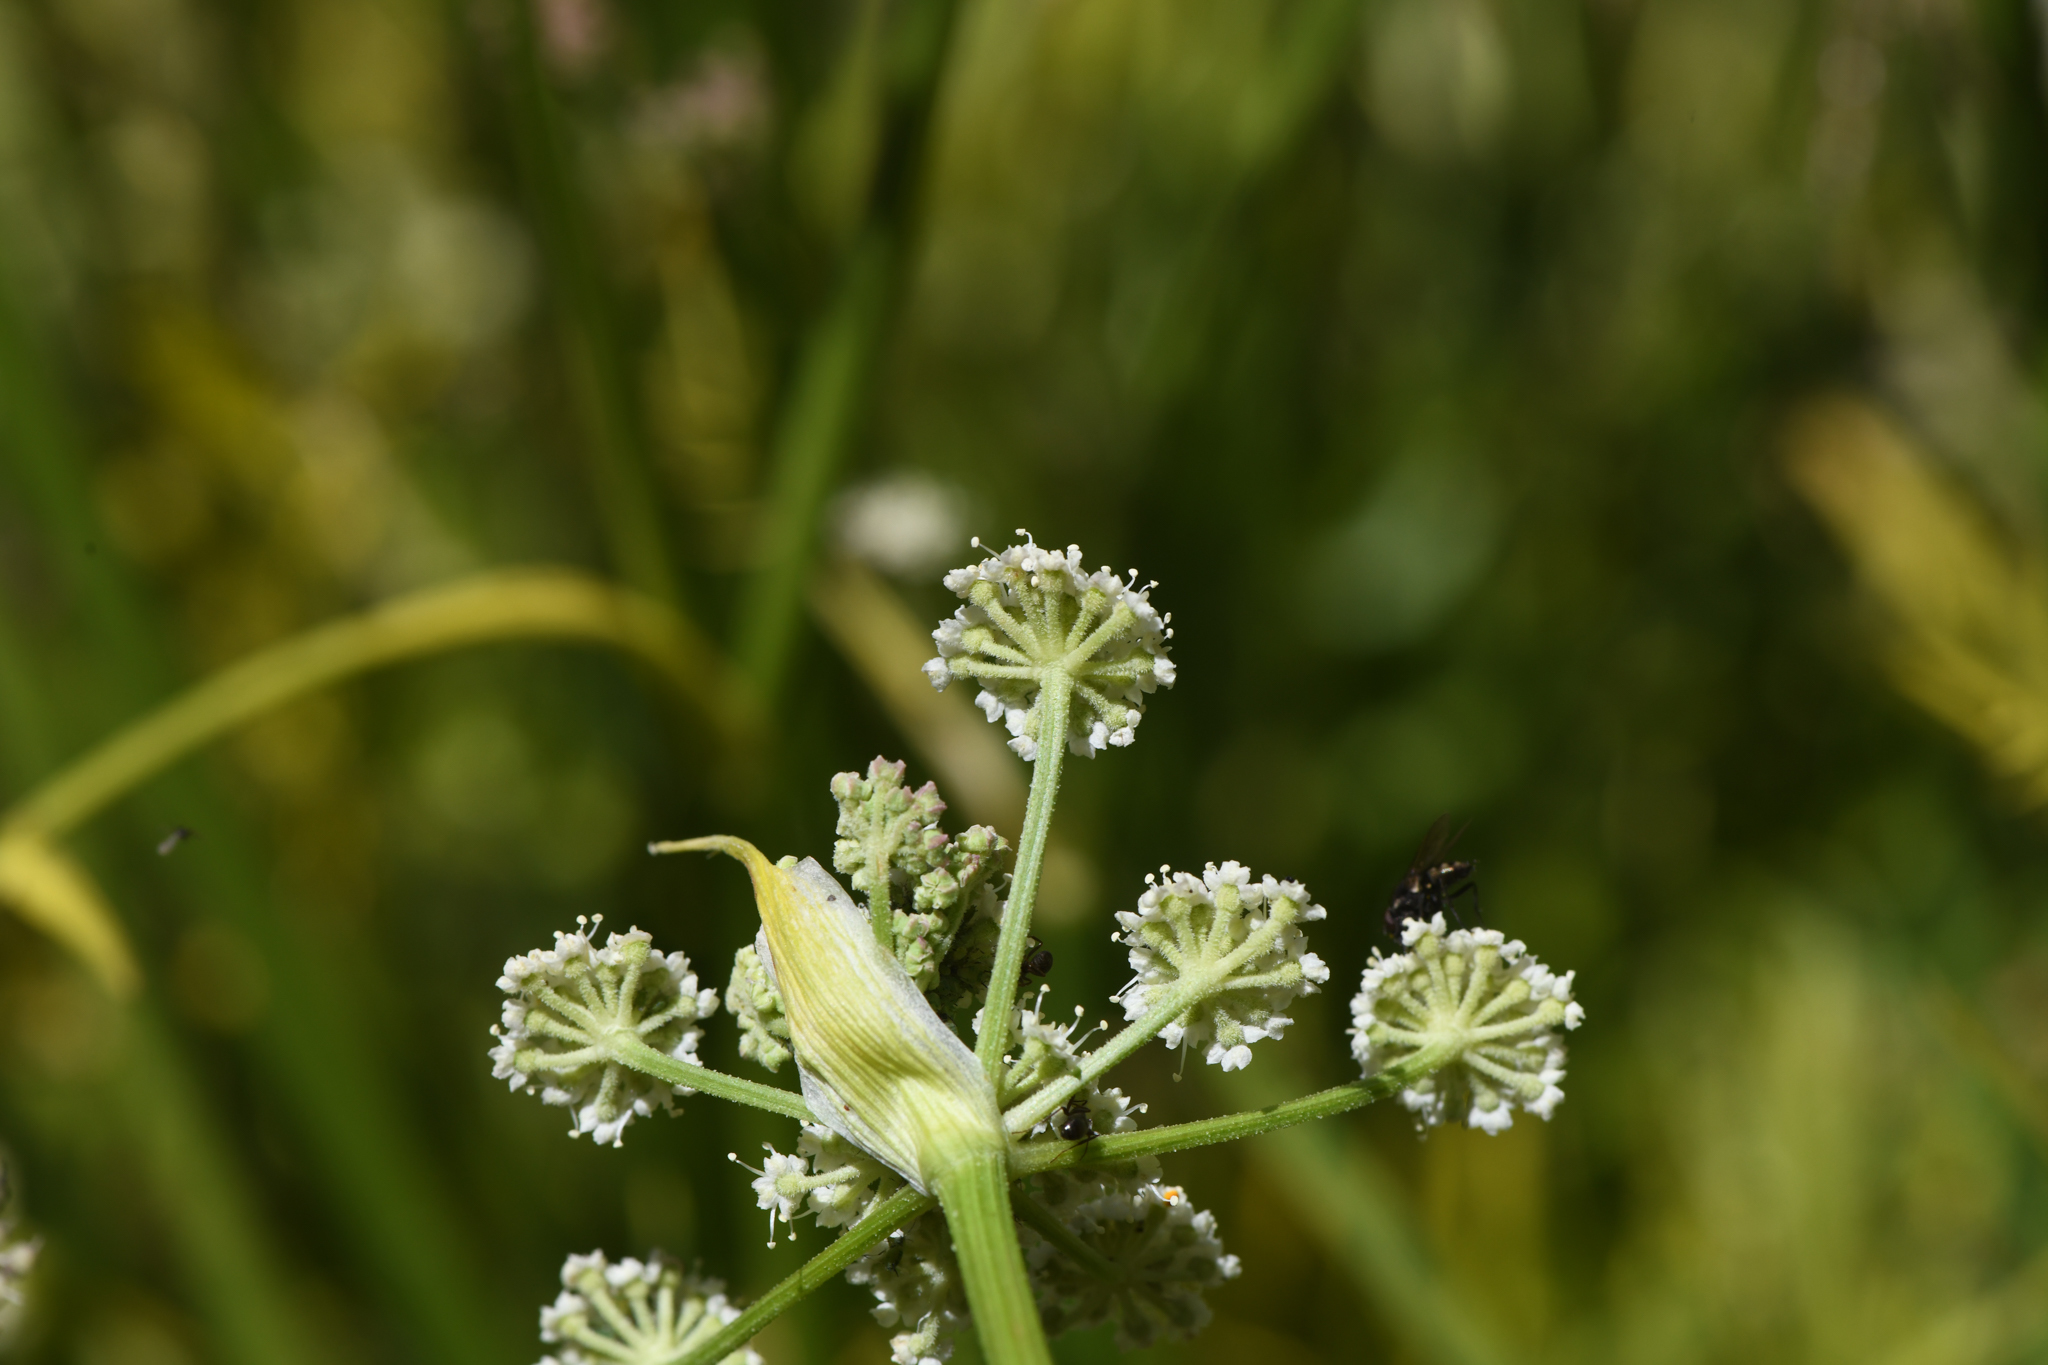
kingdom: Plantae
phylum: Tracheophyta
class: Magnoliopsida
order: Apiales
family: Apiaceae
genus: Angelica
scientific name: Angelica kingii
